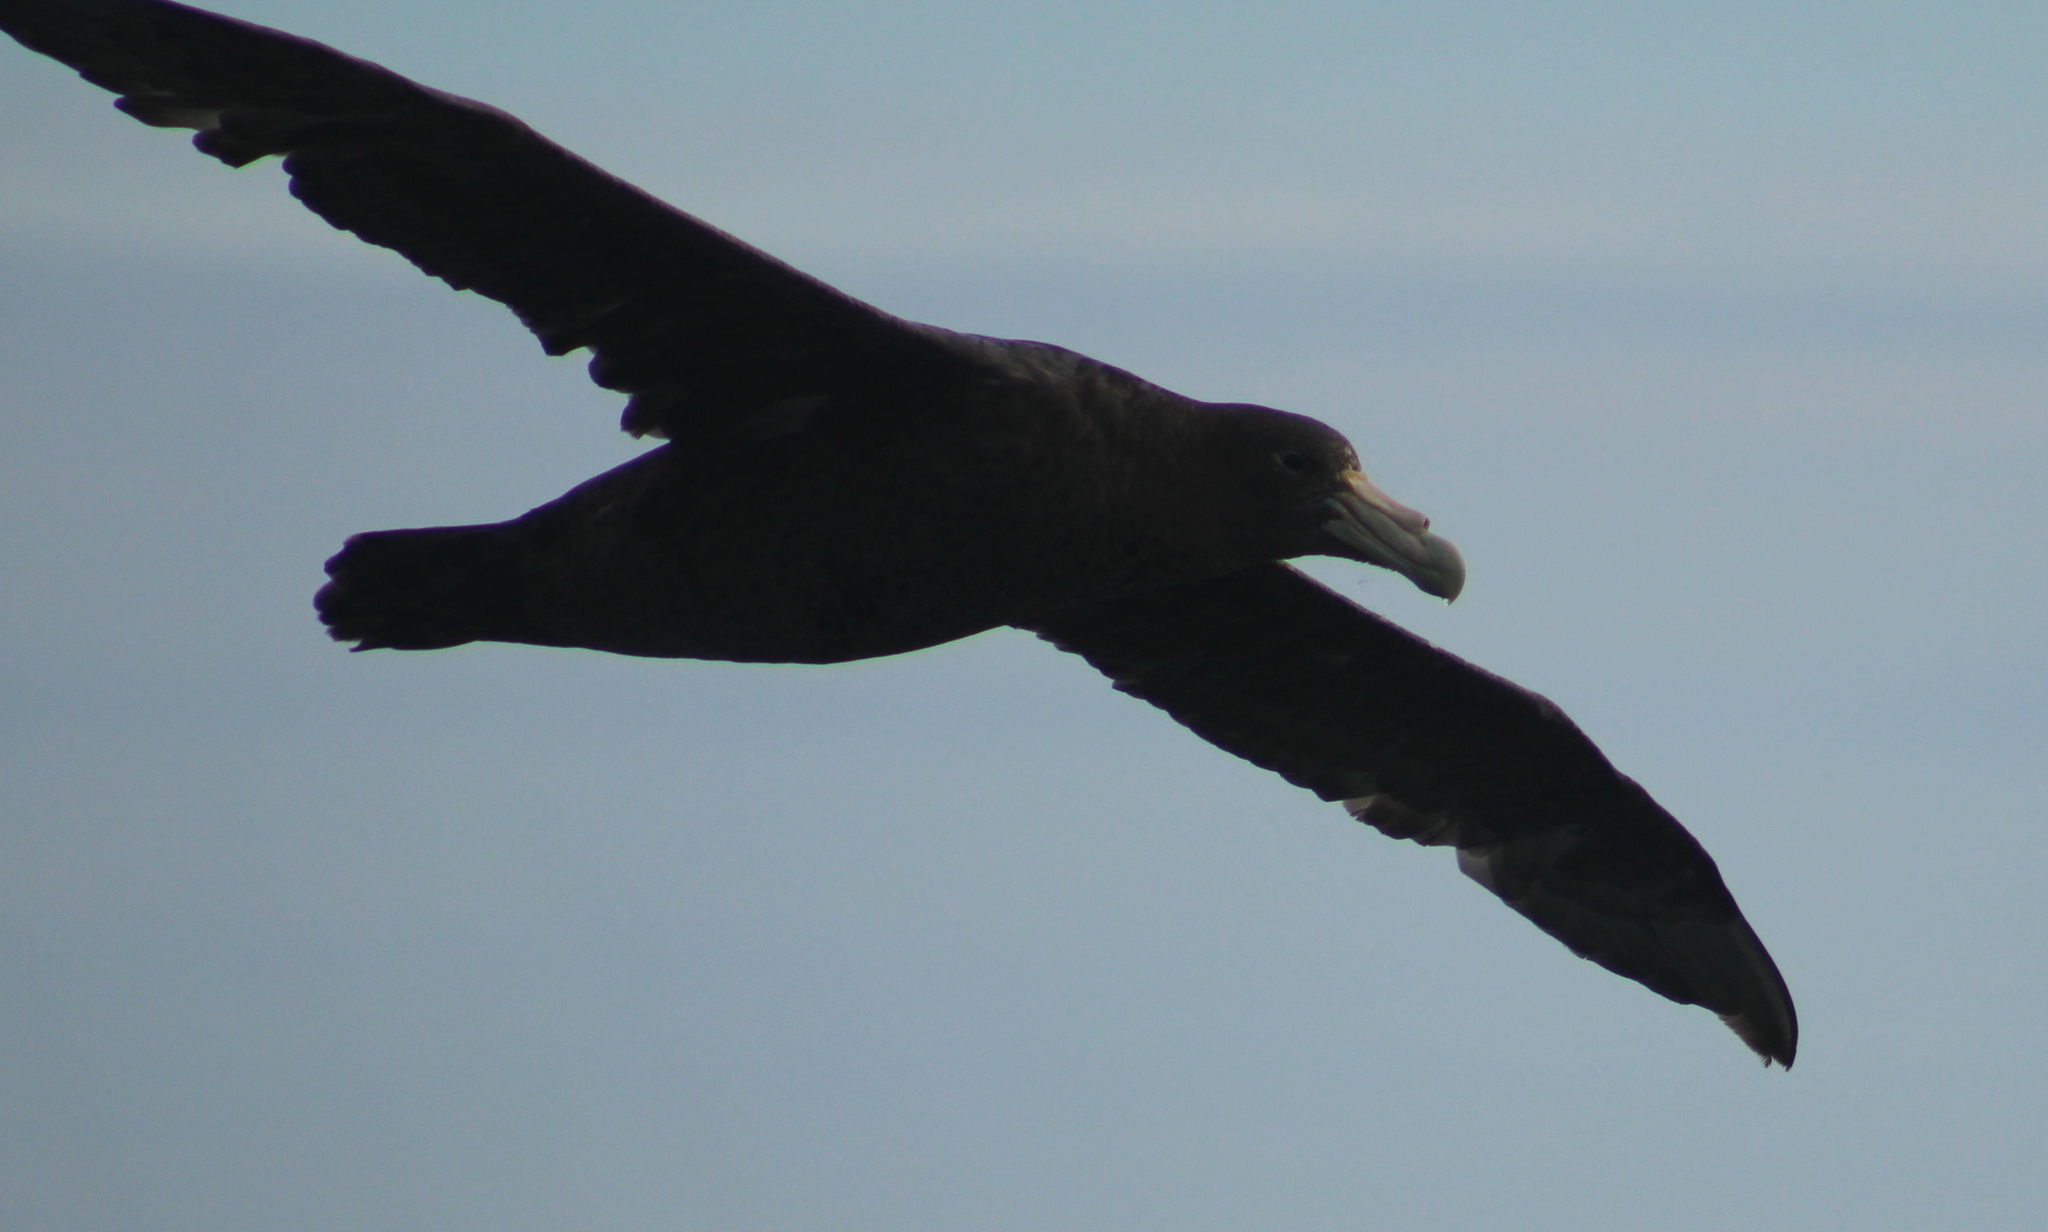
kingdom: Animalia
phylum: Chordata
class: Aves
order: Procellariiformes
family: Procellariidae
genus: Macronectes
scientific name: Macronectes giganteus
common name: Southern giant petrel
